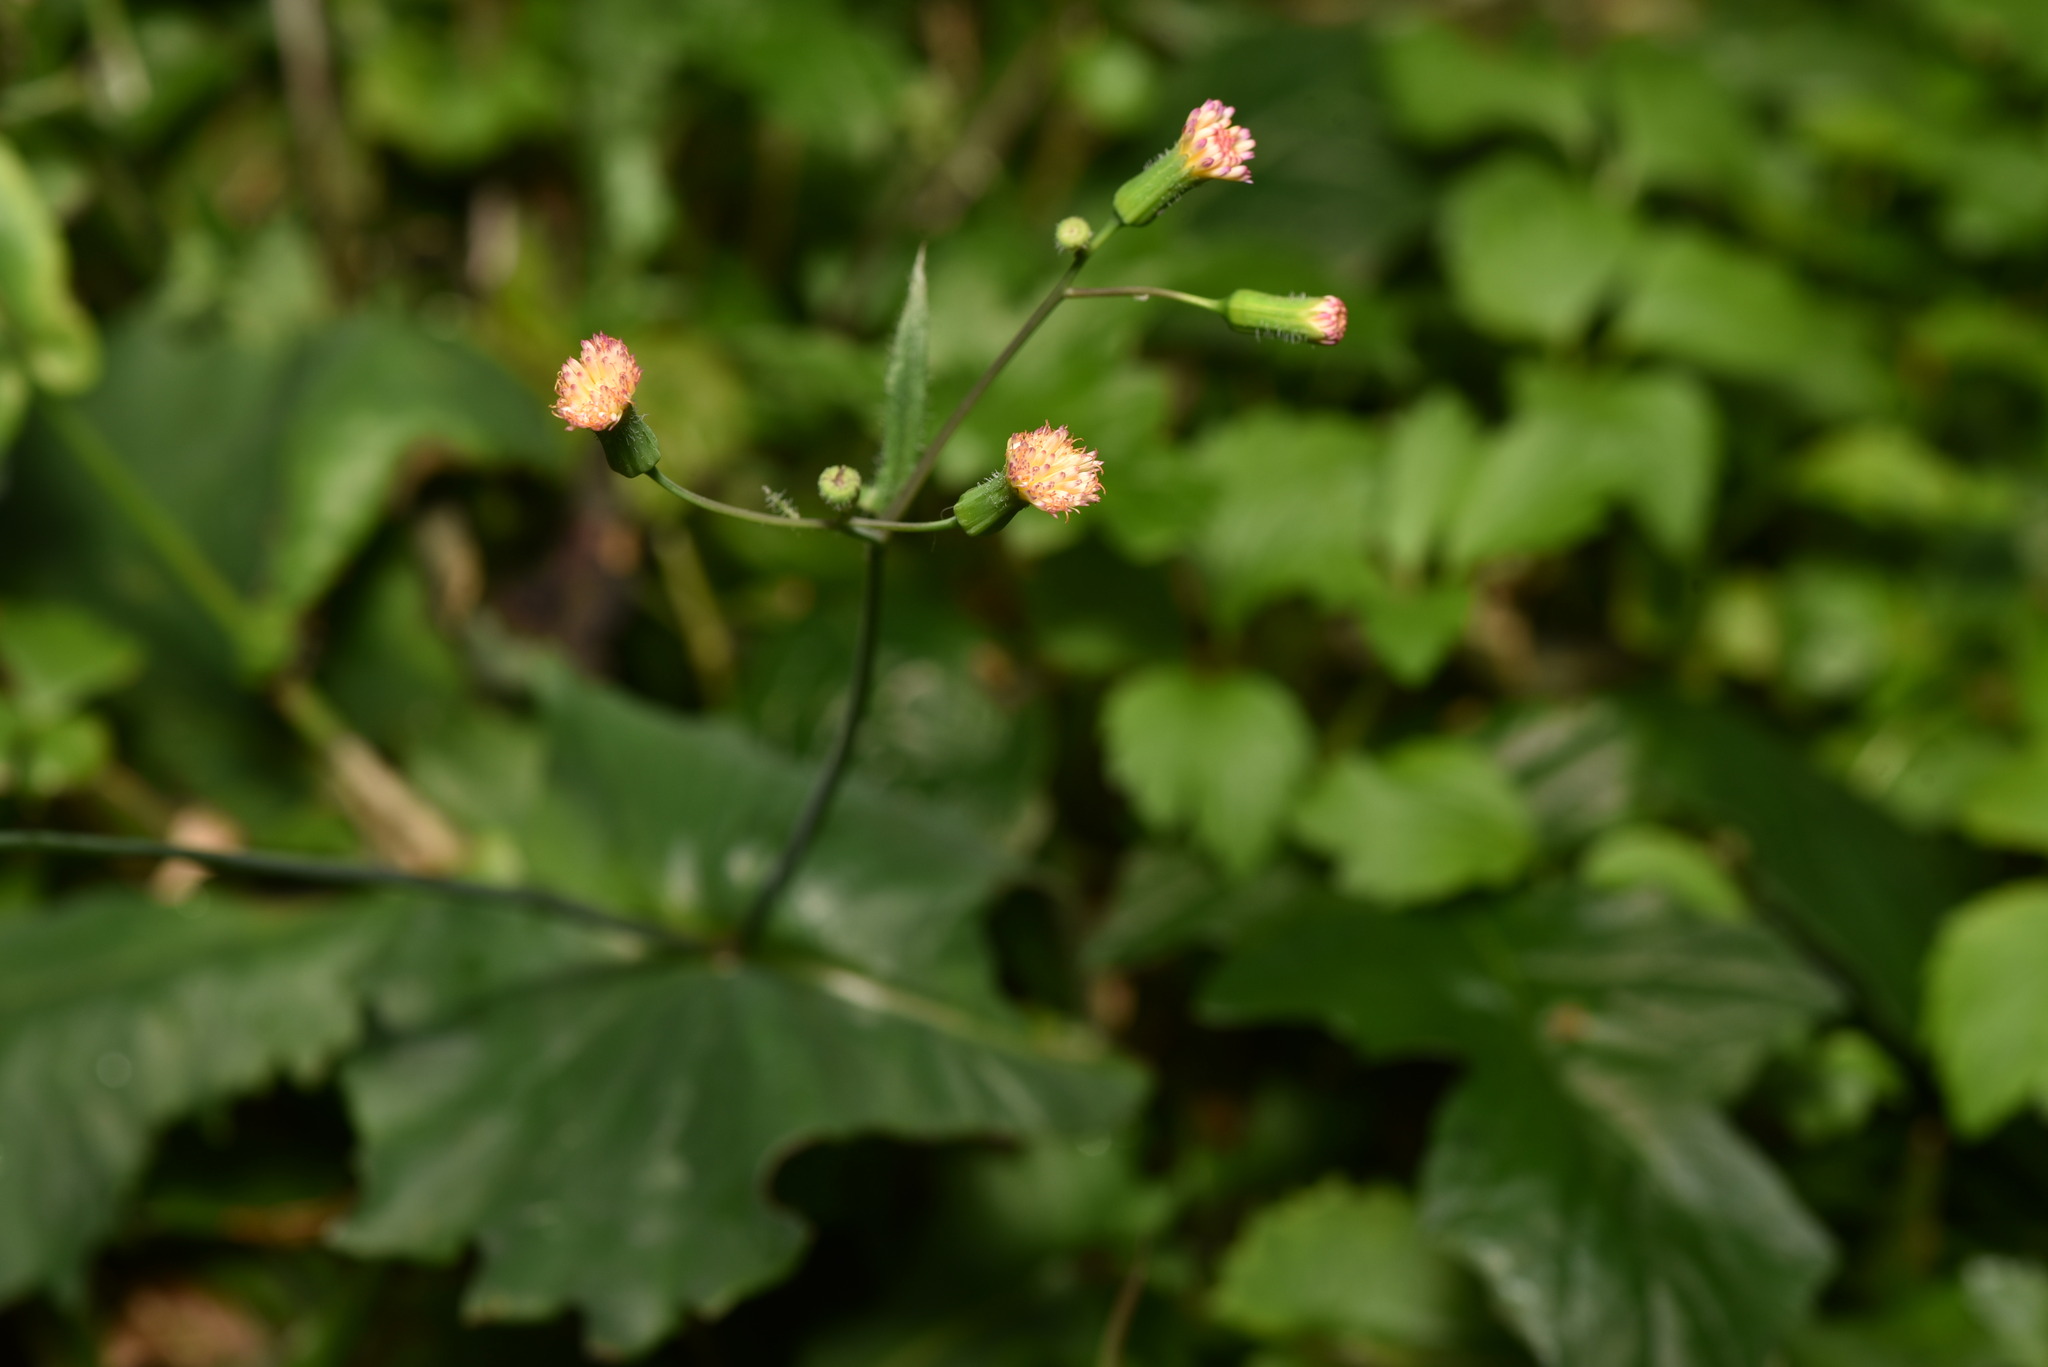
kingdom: Plantae
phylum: Tracheophyta
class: Magnoliopsida
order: Asterales
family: Asteraceae
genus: Emilia
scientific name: Emilia praetermissa
